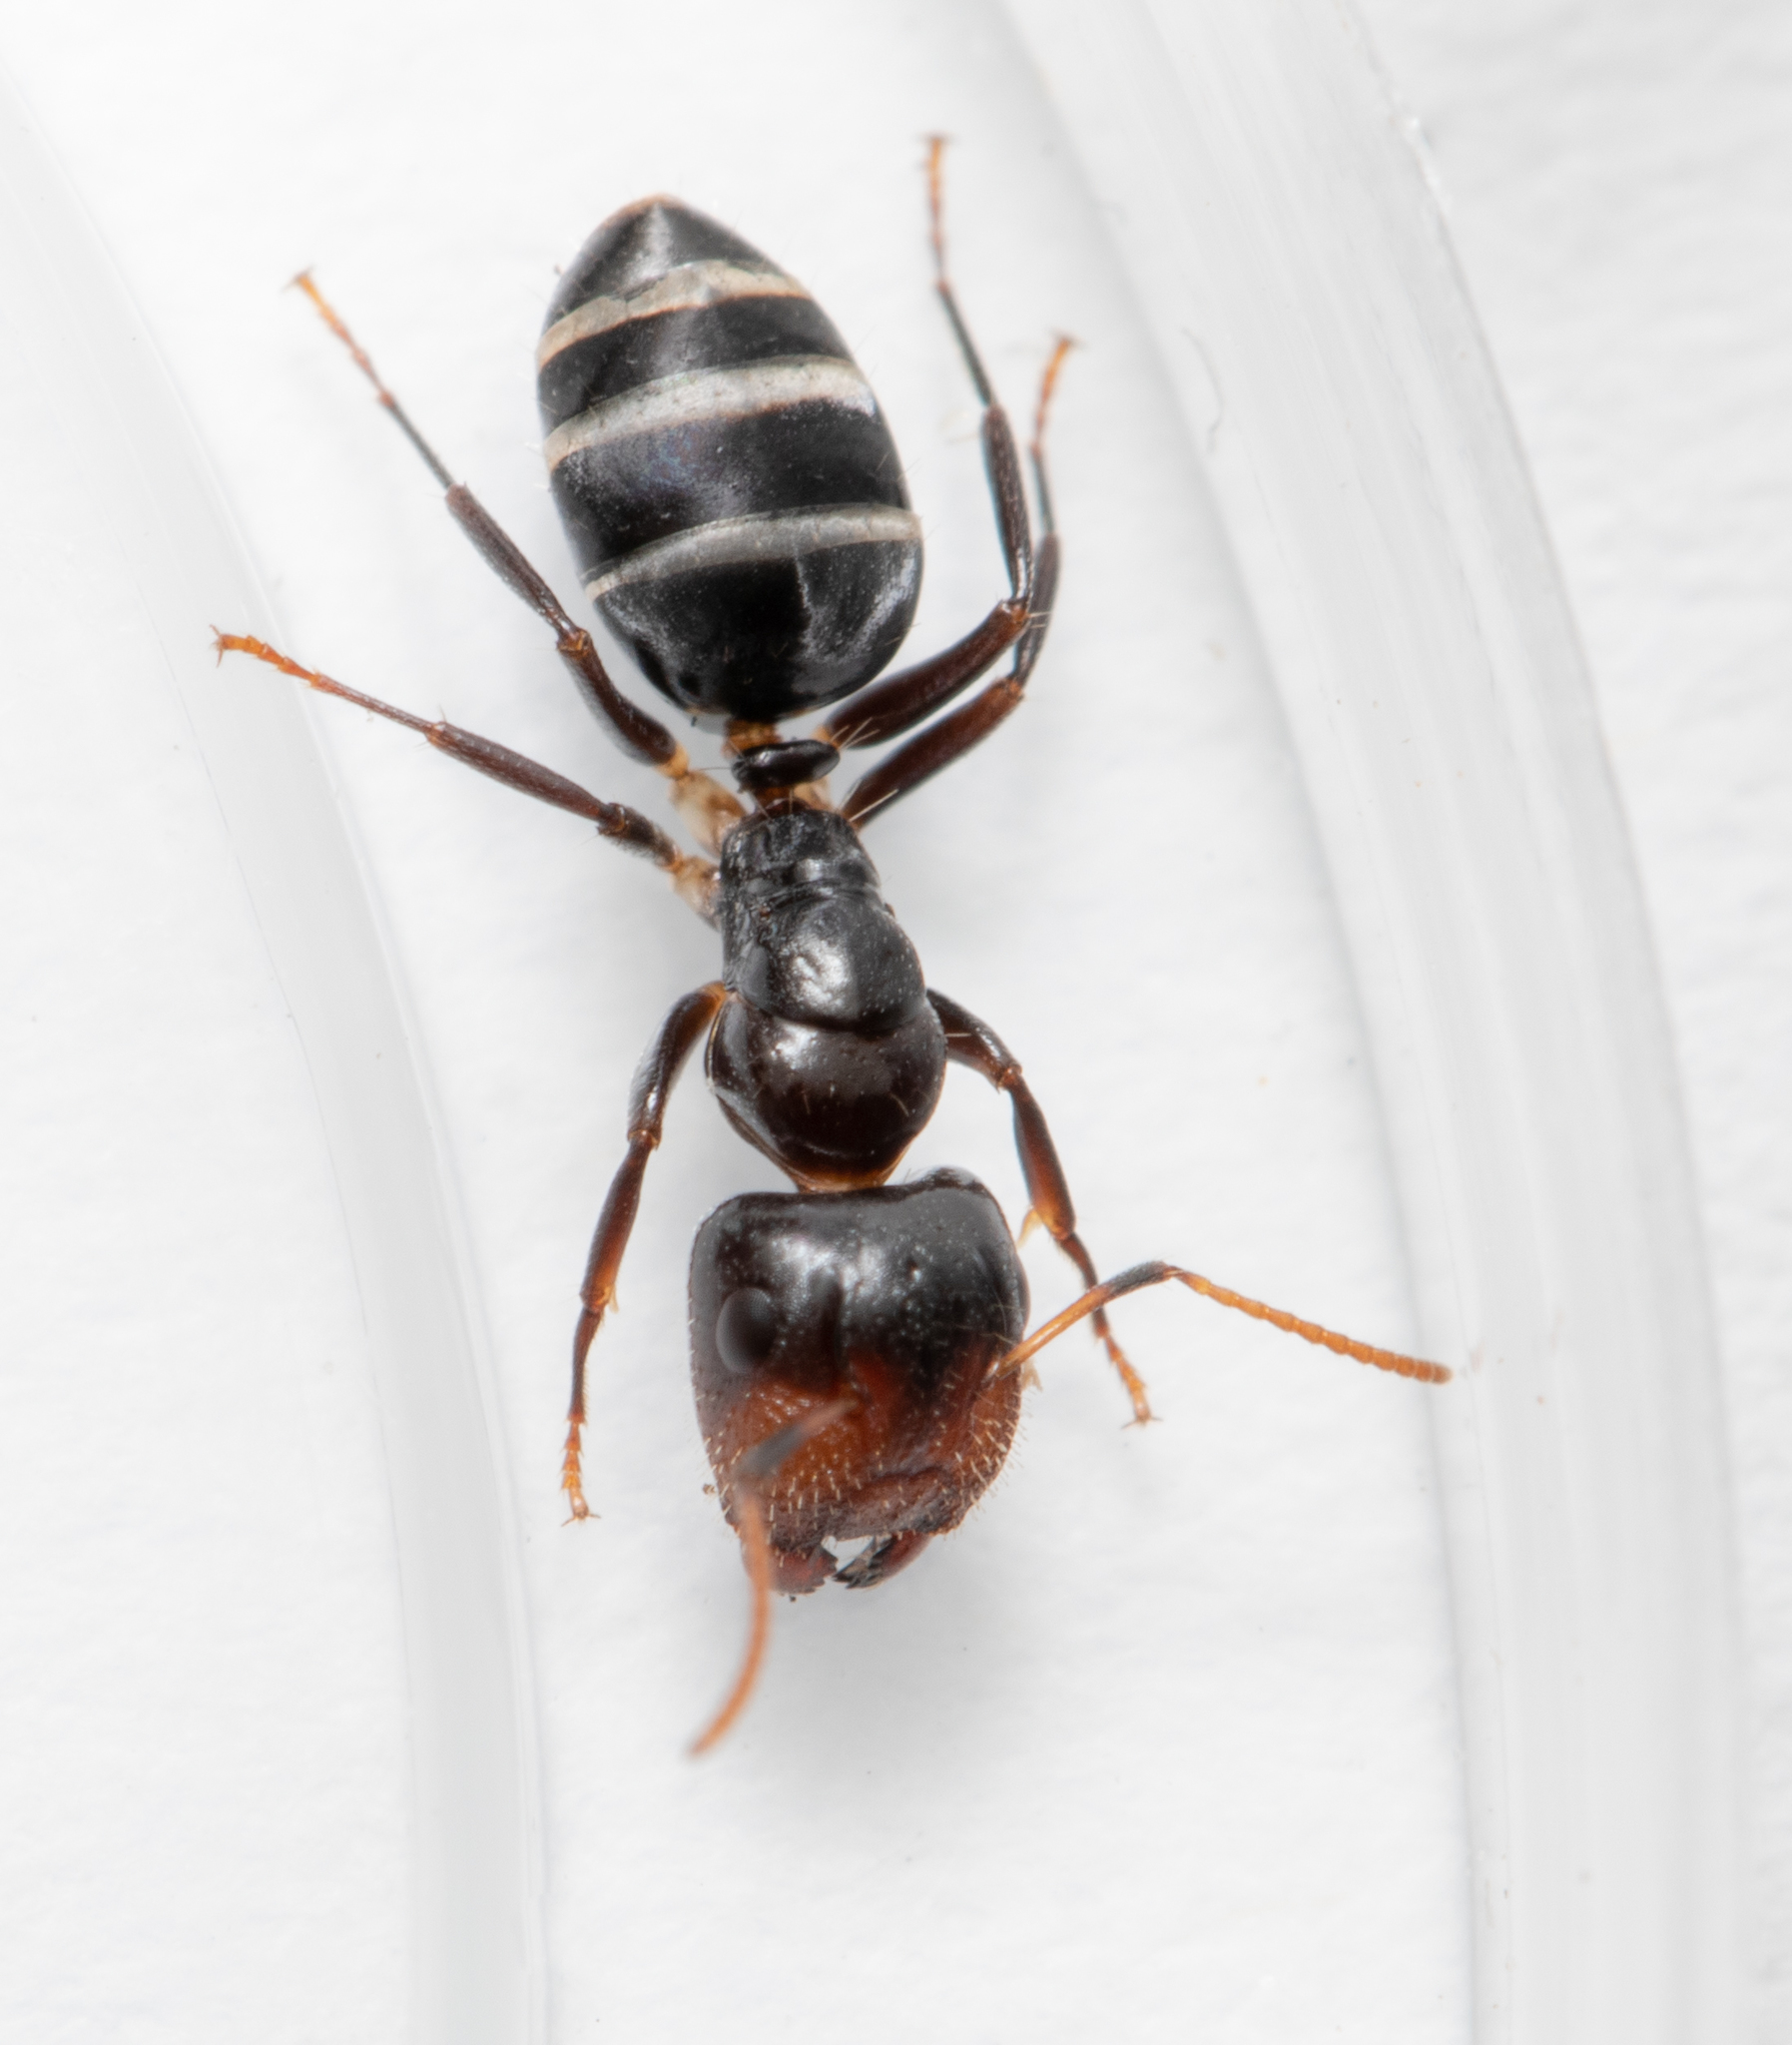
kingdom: Animalia
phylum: Arthropoda
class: Insecta
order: Hymenoptera
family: Formicidae
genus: Camponotus
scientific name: Camponotus mackayensis
